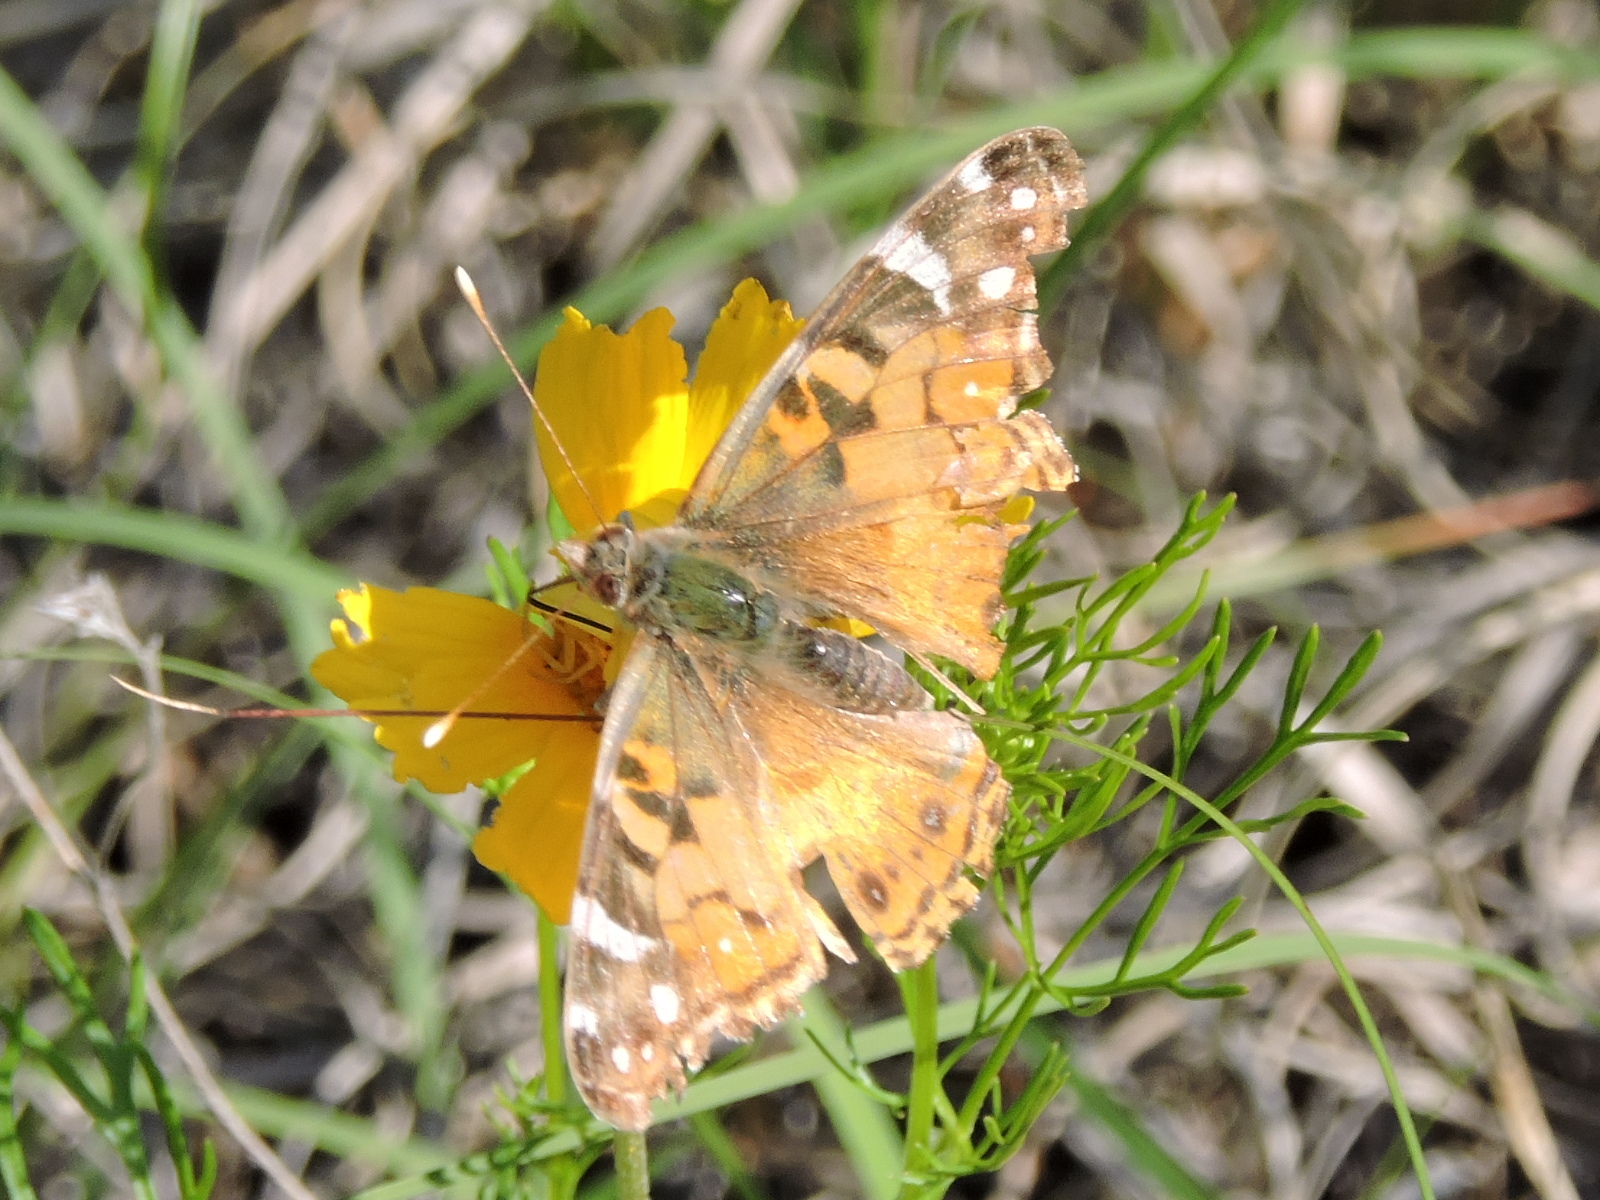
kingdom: Animalia
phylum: Arthropoda
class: Insecta
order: Lepidoptera
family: Nymphalidae
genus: Vanessa
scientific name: Vanessa virginiensis
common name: American lady
